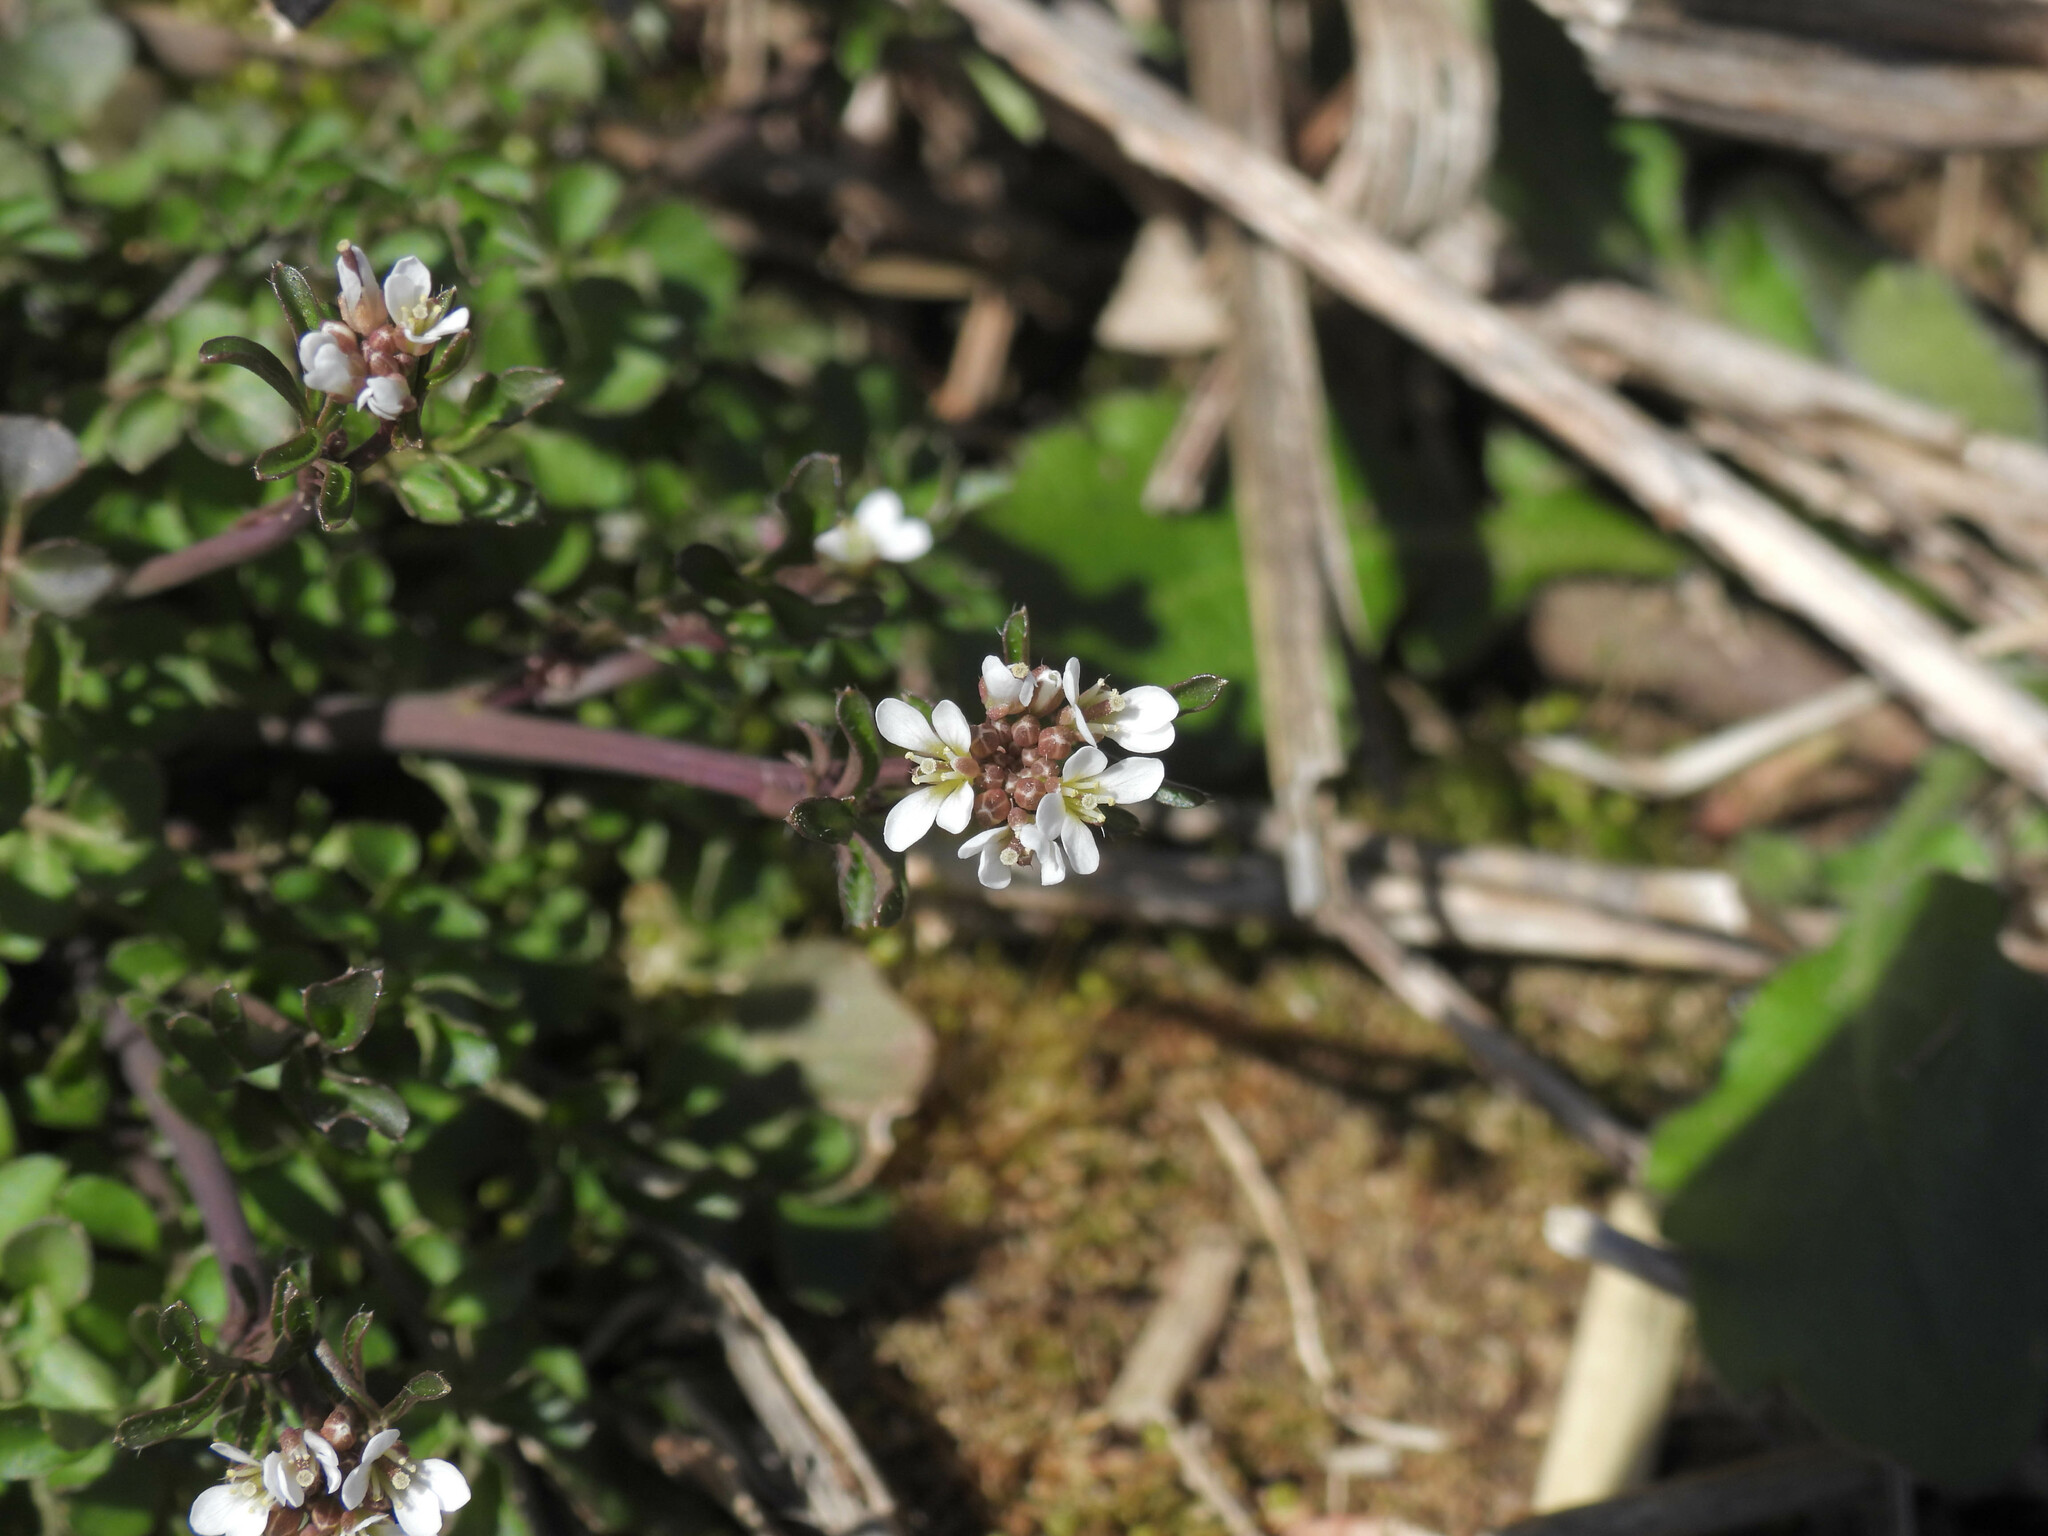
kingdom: Plantae
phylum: Tracheophyta
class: Magnoliopsida
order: Brassicales
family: Brassicaceae
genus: Cardamine
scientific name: Cardamine hirsuta
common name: Hairy bittercress
